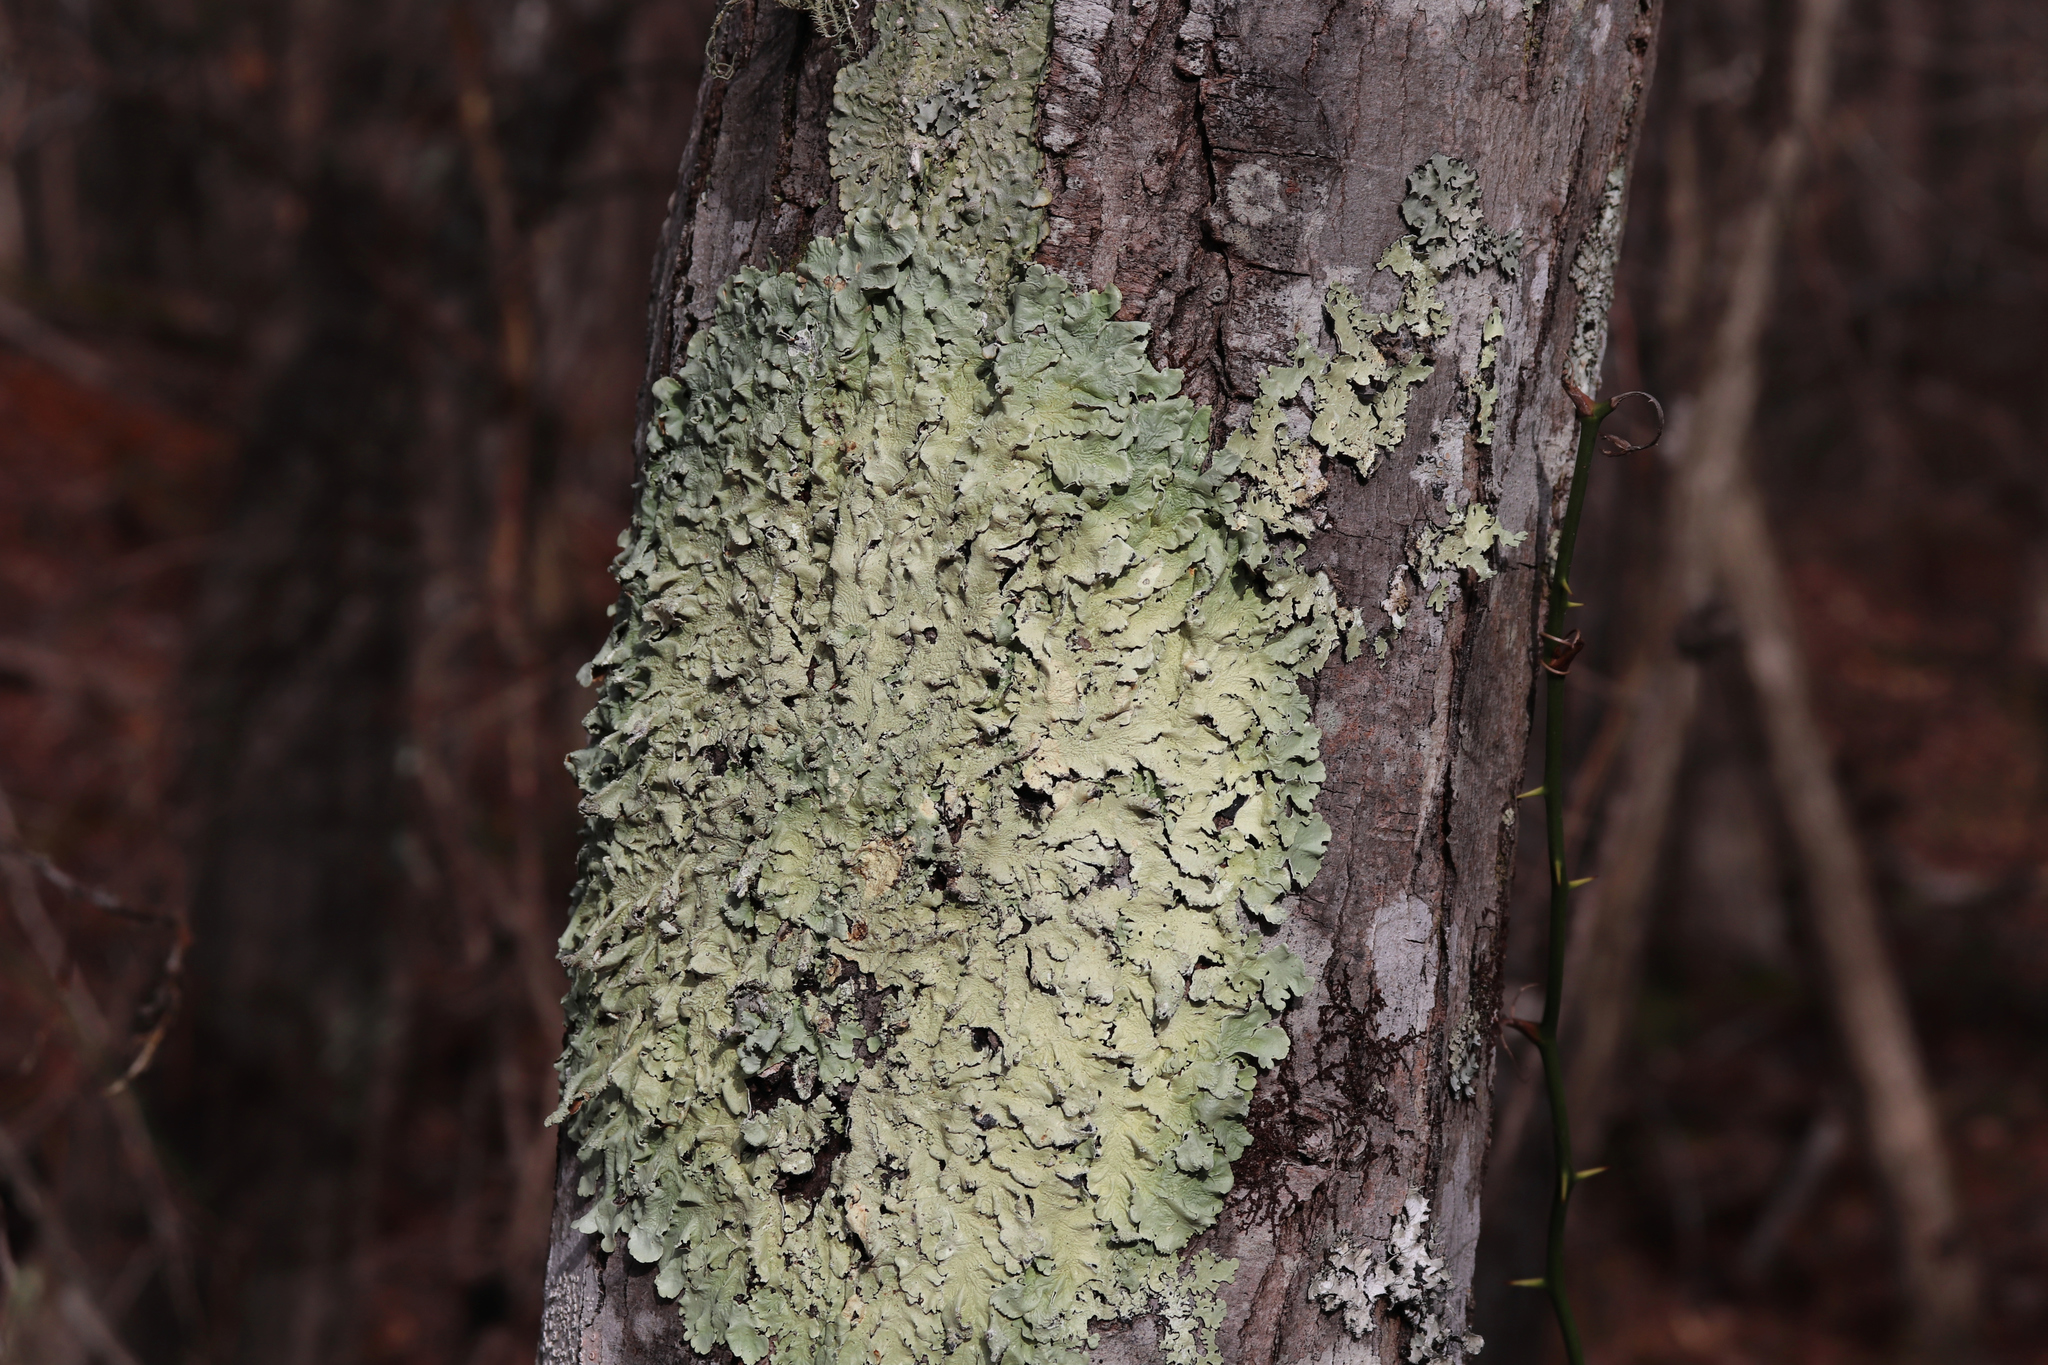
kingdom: Fungi
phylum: Ascomycota
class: Lecanoromycetes
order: Lecanorales
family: Parmeliaceae
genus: Flavoparmelia
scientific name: Flavoparmelia caperata
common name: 40-mile per hour lichen
